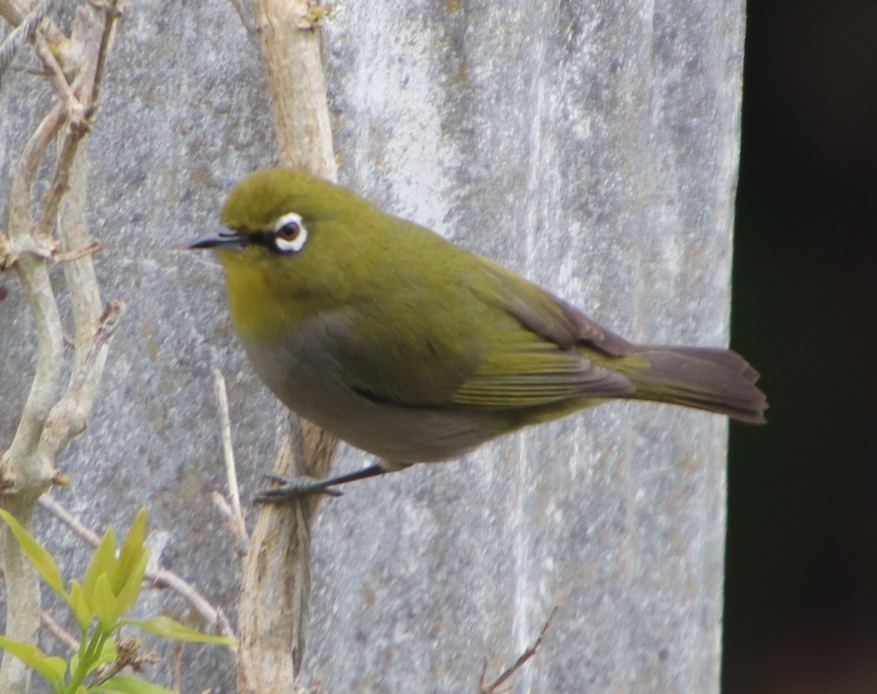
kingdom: Animalia
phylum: Chordata
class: Aves
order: Passeriformes
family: Zosteropidae
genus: Zosterops
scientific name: Zosterops virens
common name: Cape white-eye
